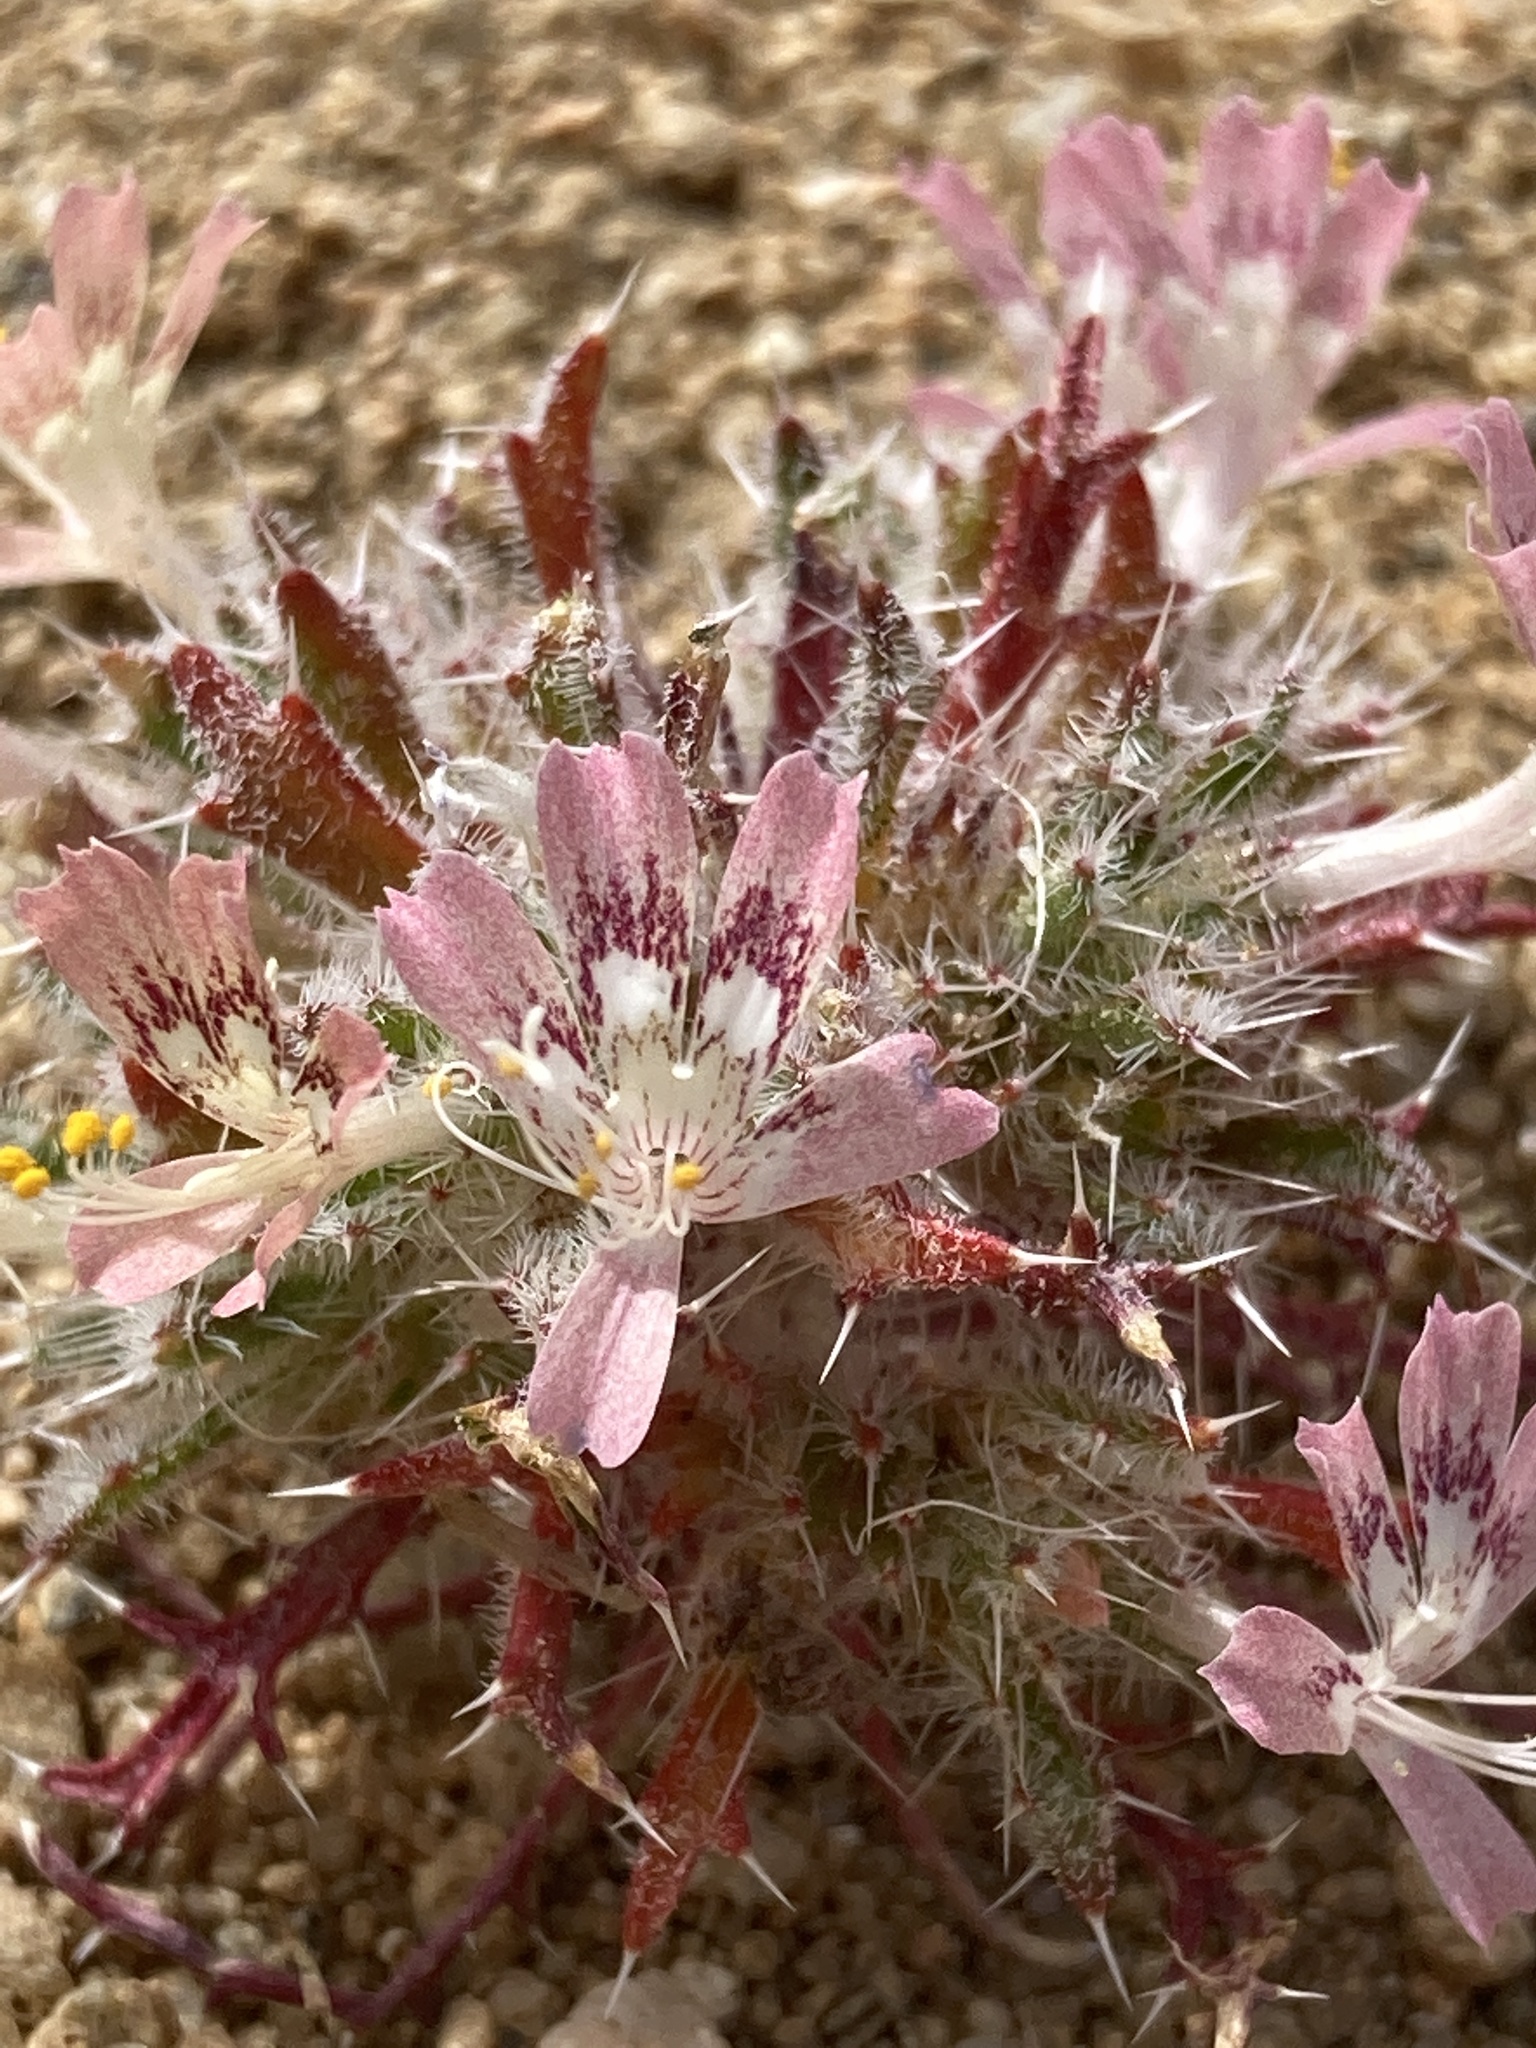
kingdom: Plantae
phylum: Tracheophyta
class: Magnoliopsida
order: Ericales
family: Polemoniaceae
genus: Loeseliastrum
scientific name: Loeseliastrum matthewsii
